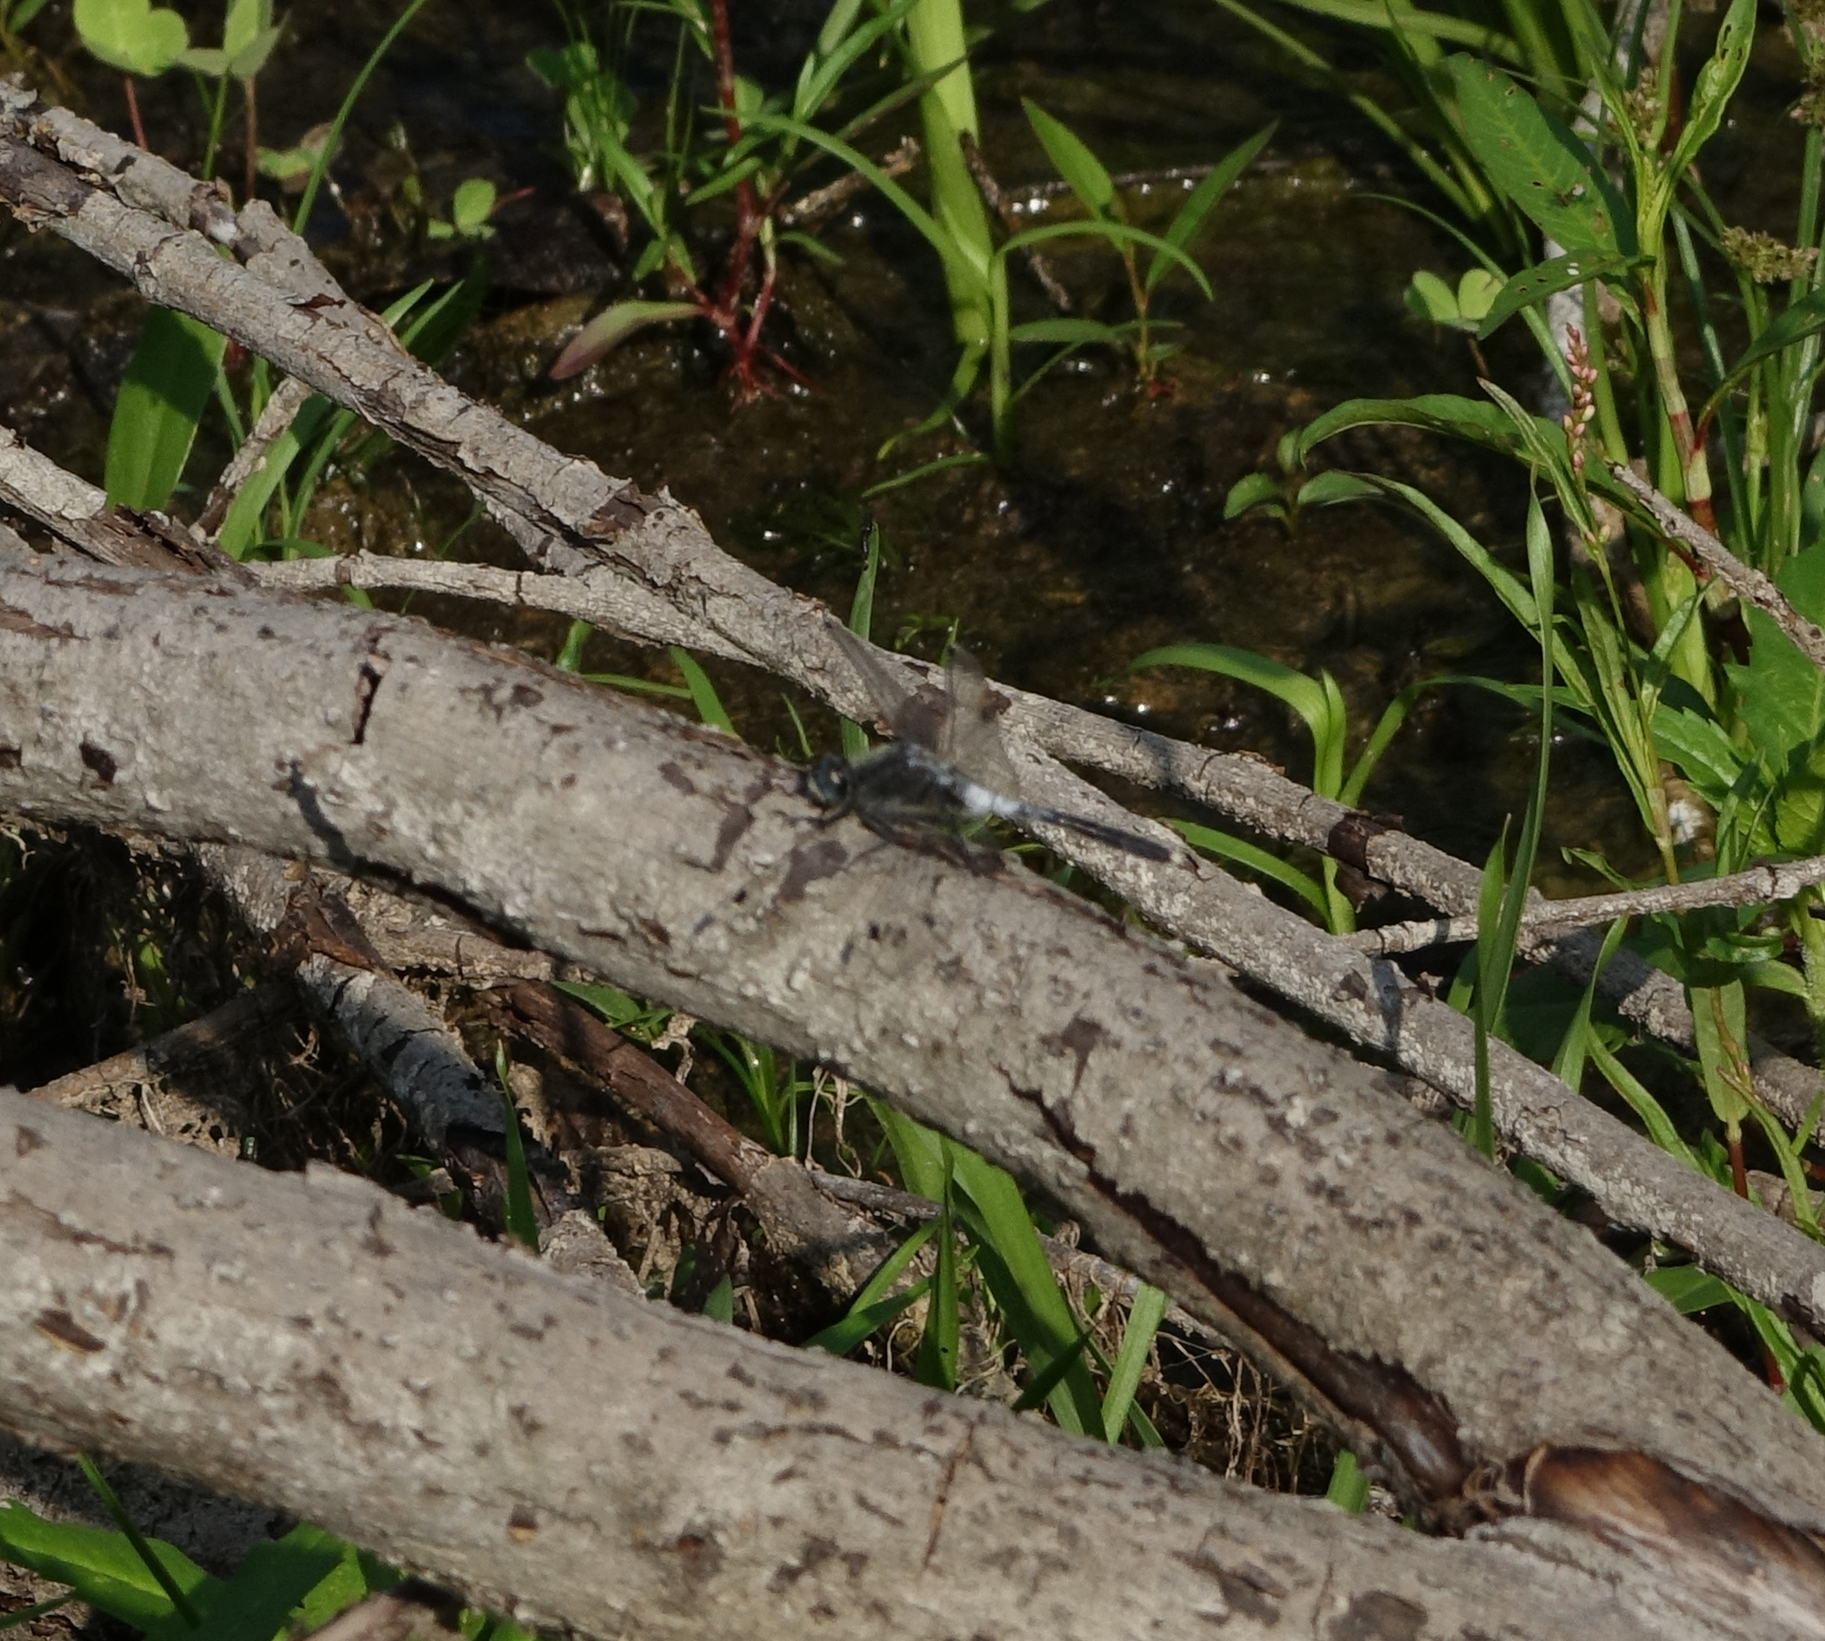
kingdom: Animalia
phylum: Arthropoda
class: Insecta
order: Odonata
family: Libellulidae
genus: Leucorrhinia
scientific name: Leucorrhinia albifrons
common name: Dark whiteface
